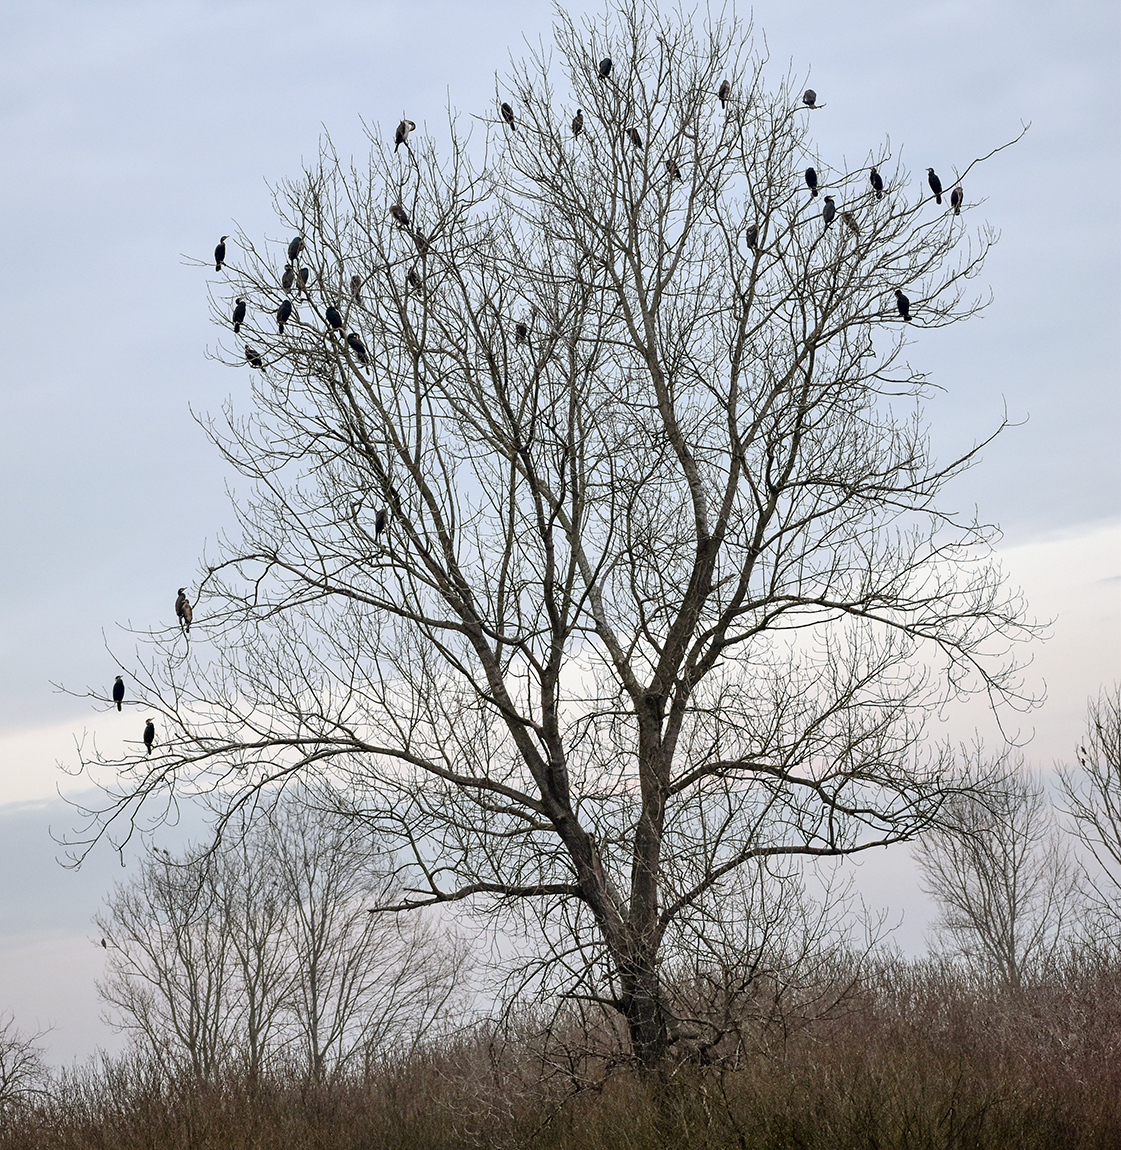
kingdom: Animalia
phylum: Chordata
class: Aves
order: Suliformes
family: Phalacrocoracidae
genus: Phalacrocorax
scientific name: Phalacrocorax carbo
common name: Great cormorant
